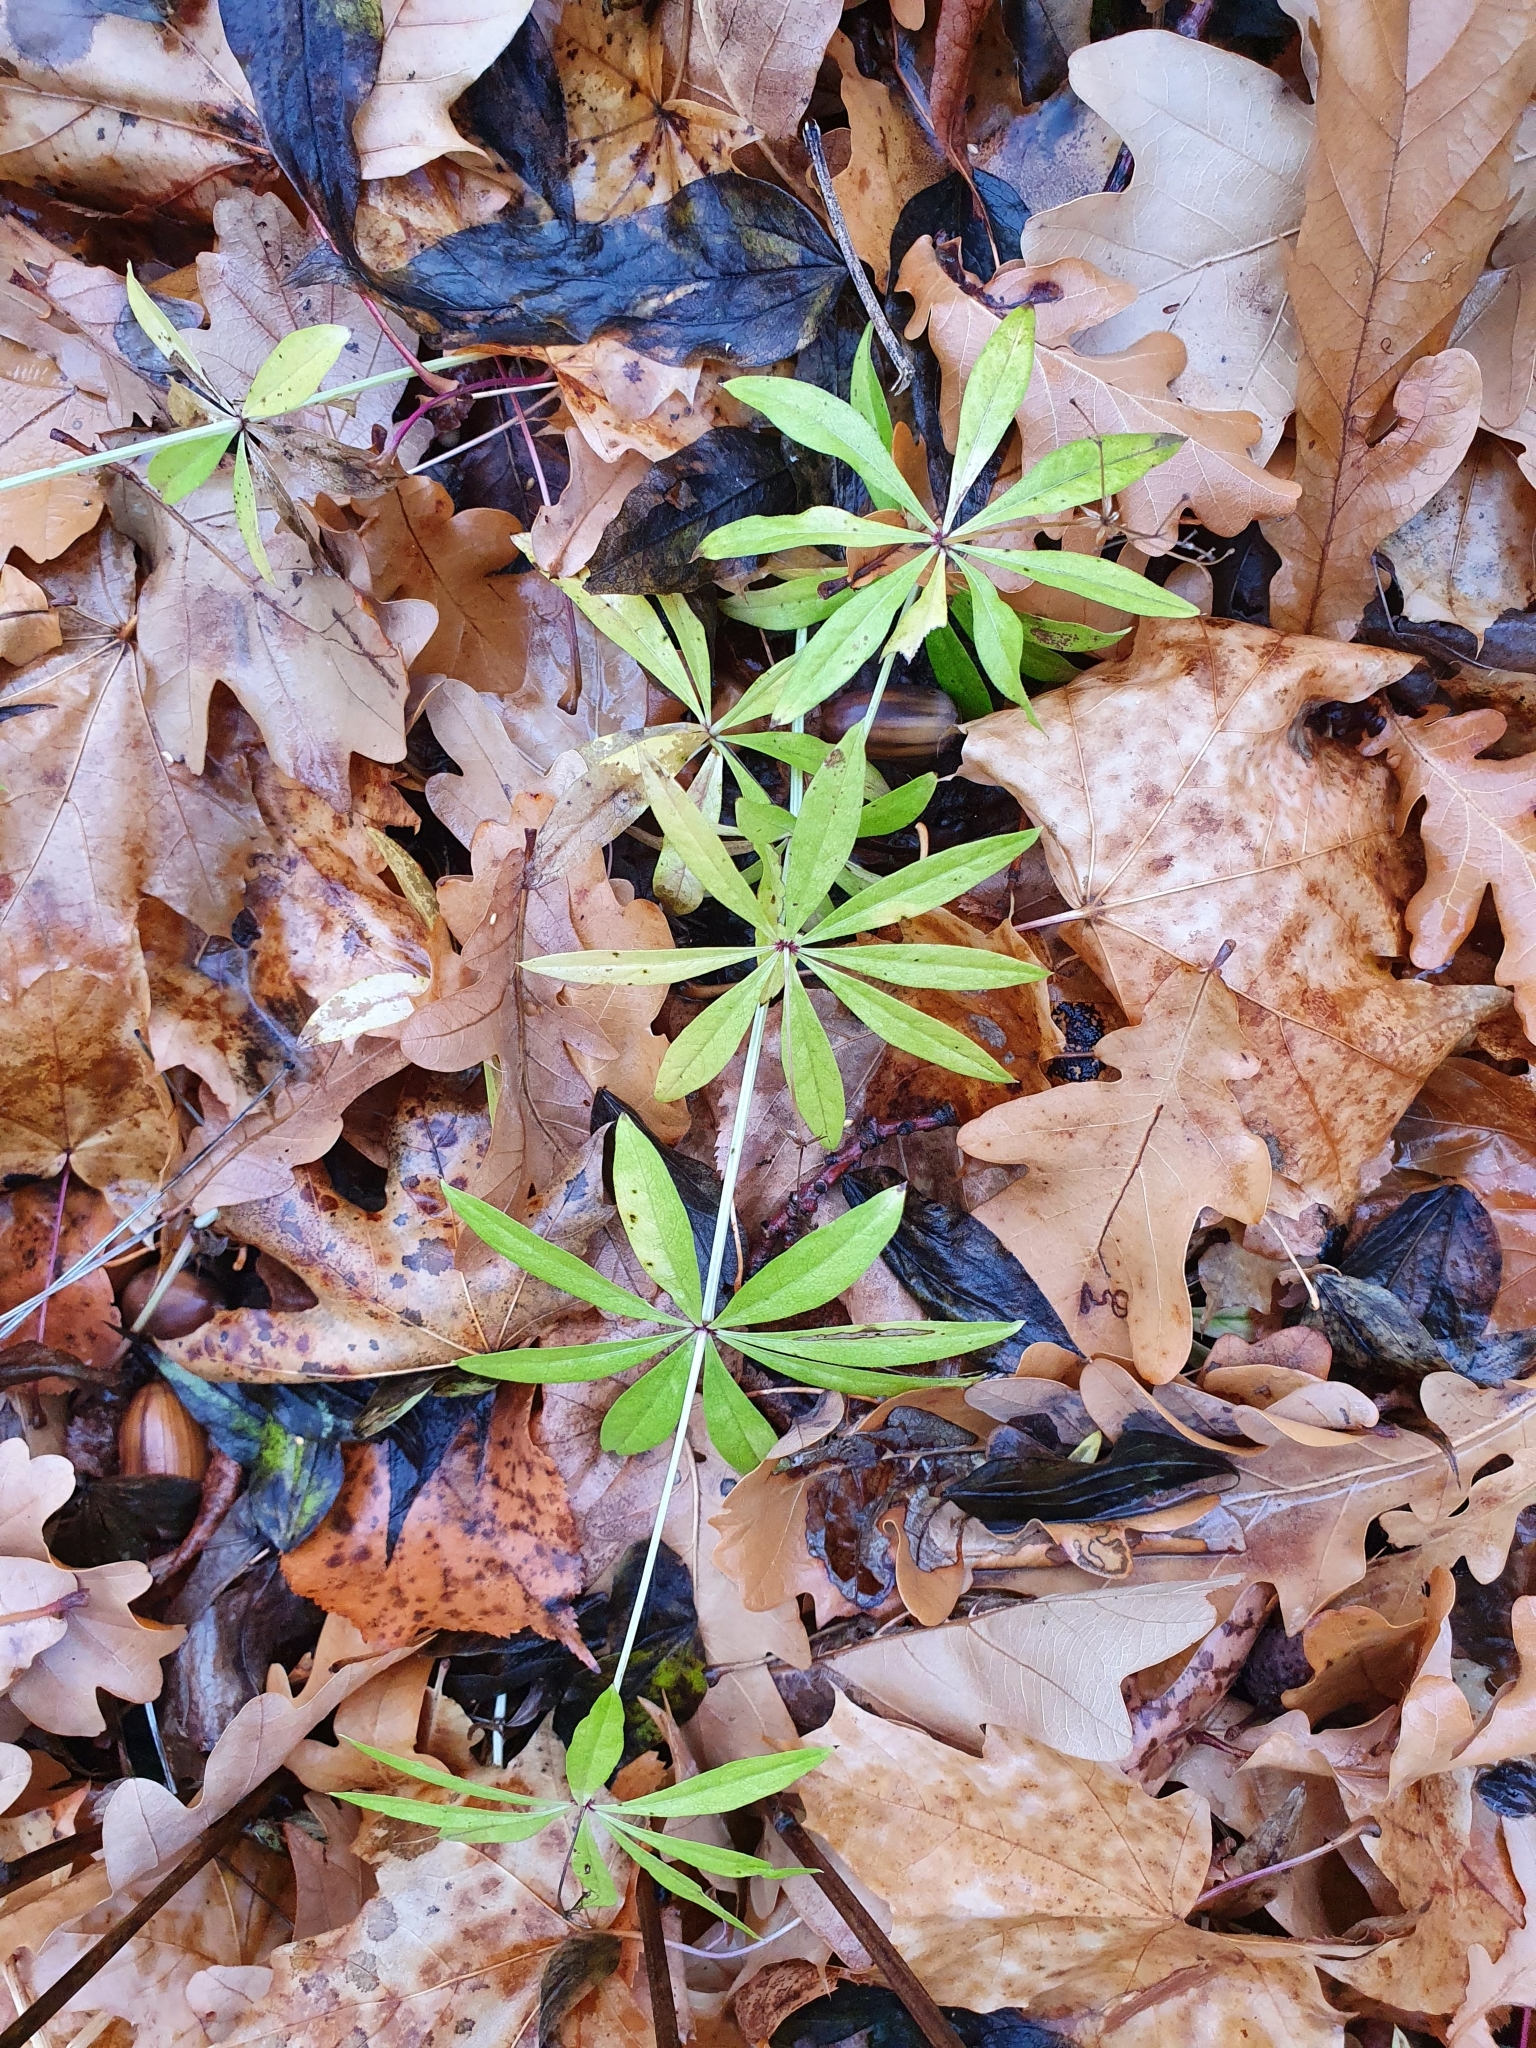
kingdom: Plantae
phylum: Tracheophyta
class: Magnoliopsida
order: Gentianales
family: Rubiaceae
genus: Galium
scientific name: Galium odoratum
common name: Sweet woodruff
